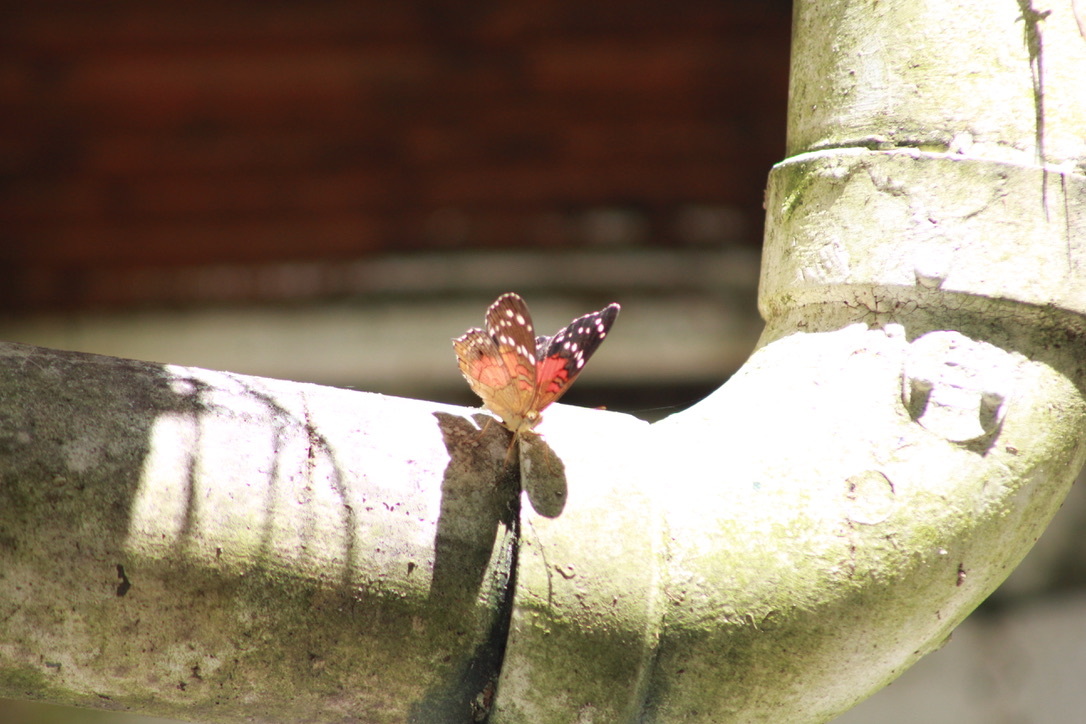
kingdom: Animalia
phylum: Arthropoda
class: Insecta
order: Lepidoptera
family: Nymphalidae
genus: Anartia
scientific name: Anartia amathea
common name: Red peacock
